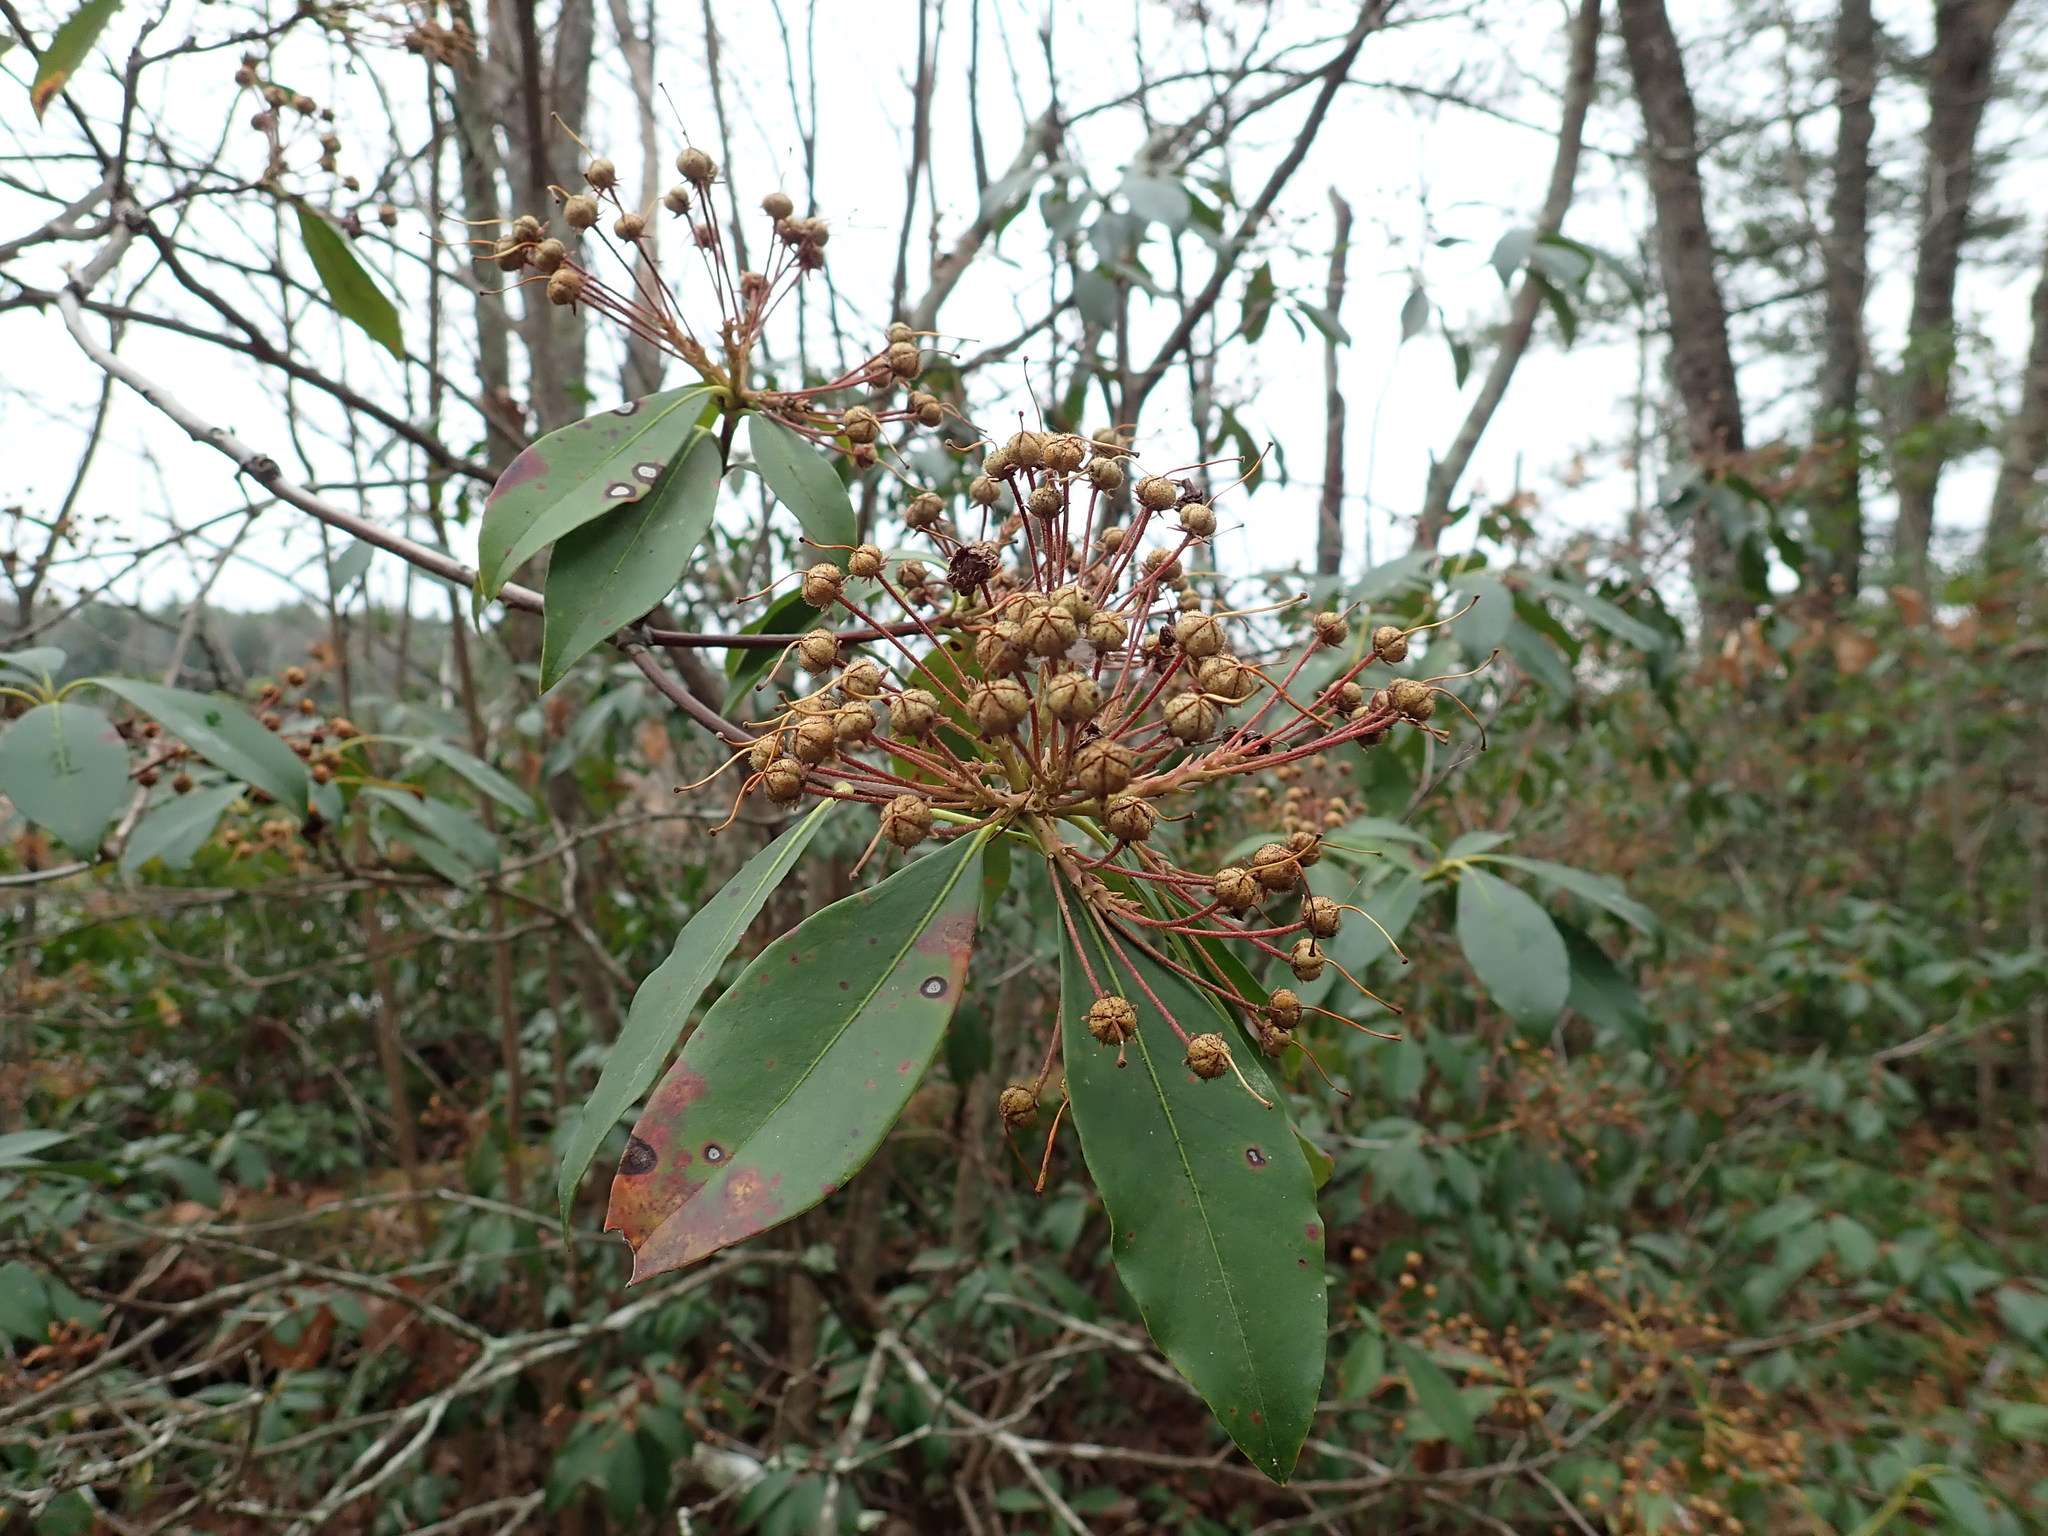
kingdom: Plantae
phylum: Tracheophyta
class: Magnoliopsida
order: Ericales
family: Ericaceae
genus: Kalmia
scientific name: Kalmia latifolia
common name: Mountain-laurel
